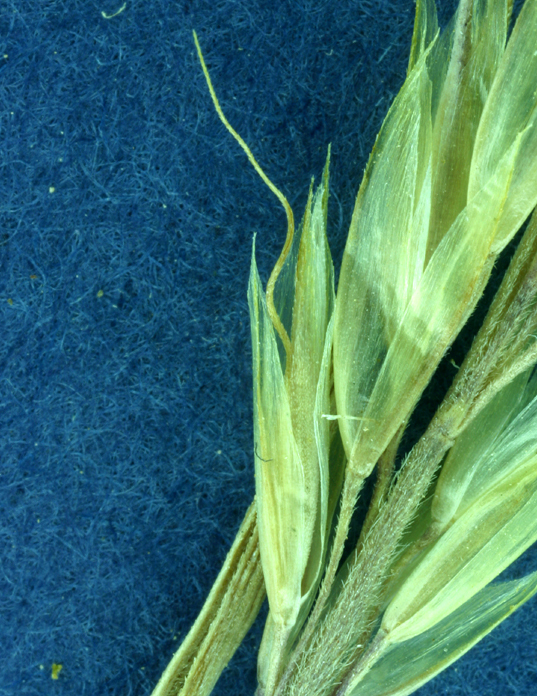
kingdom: Plantae
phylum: Tracheophyta
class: Liliopsida
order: Poales
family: Poaceae
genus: Koeleria
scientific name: Koeleria spicata
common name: Mountain trisetum
